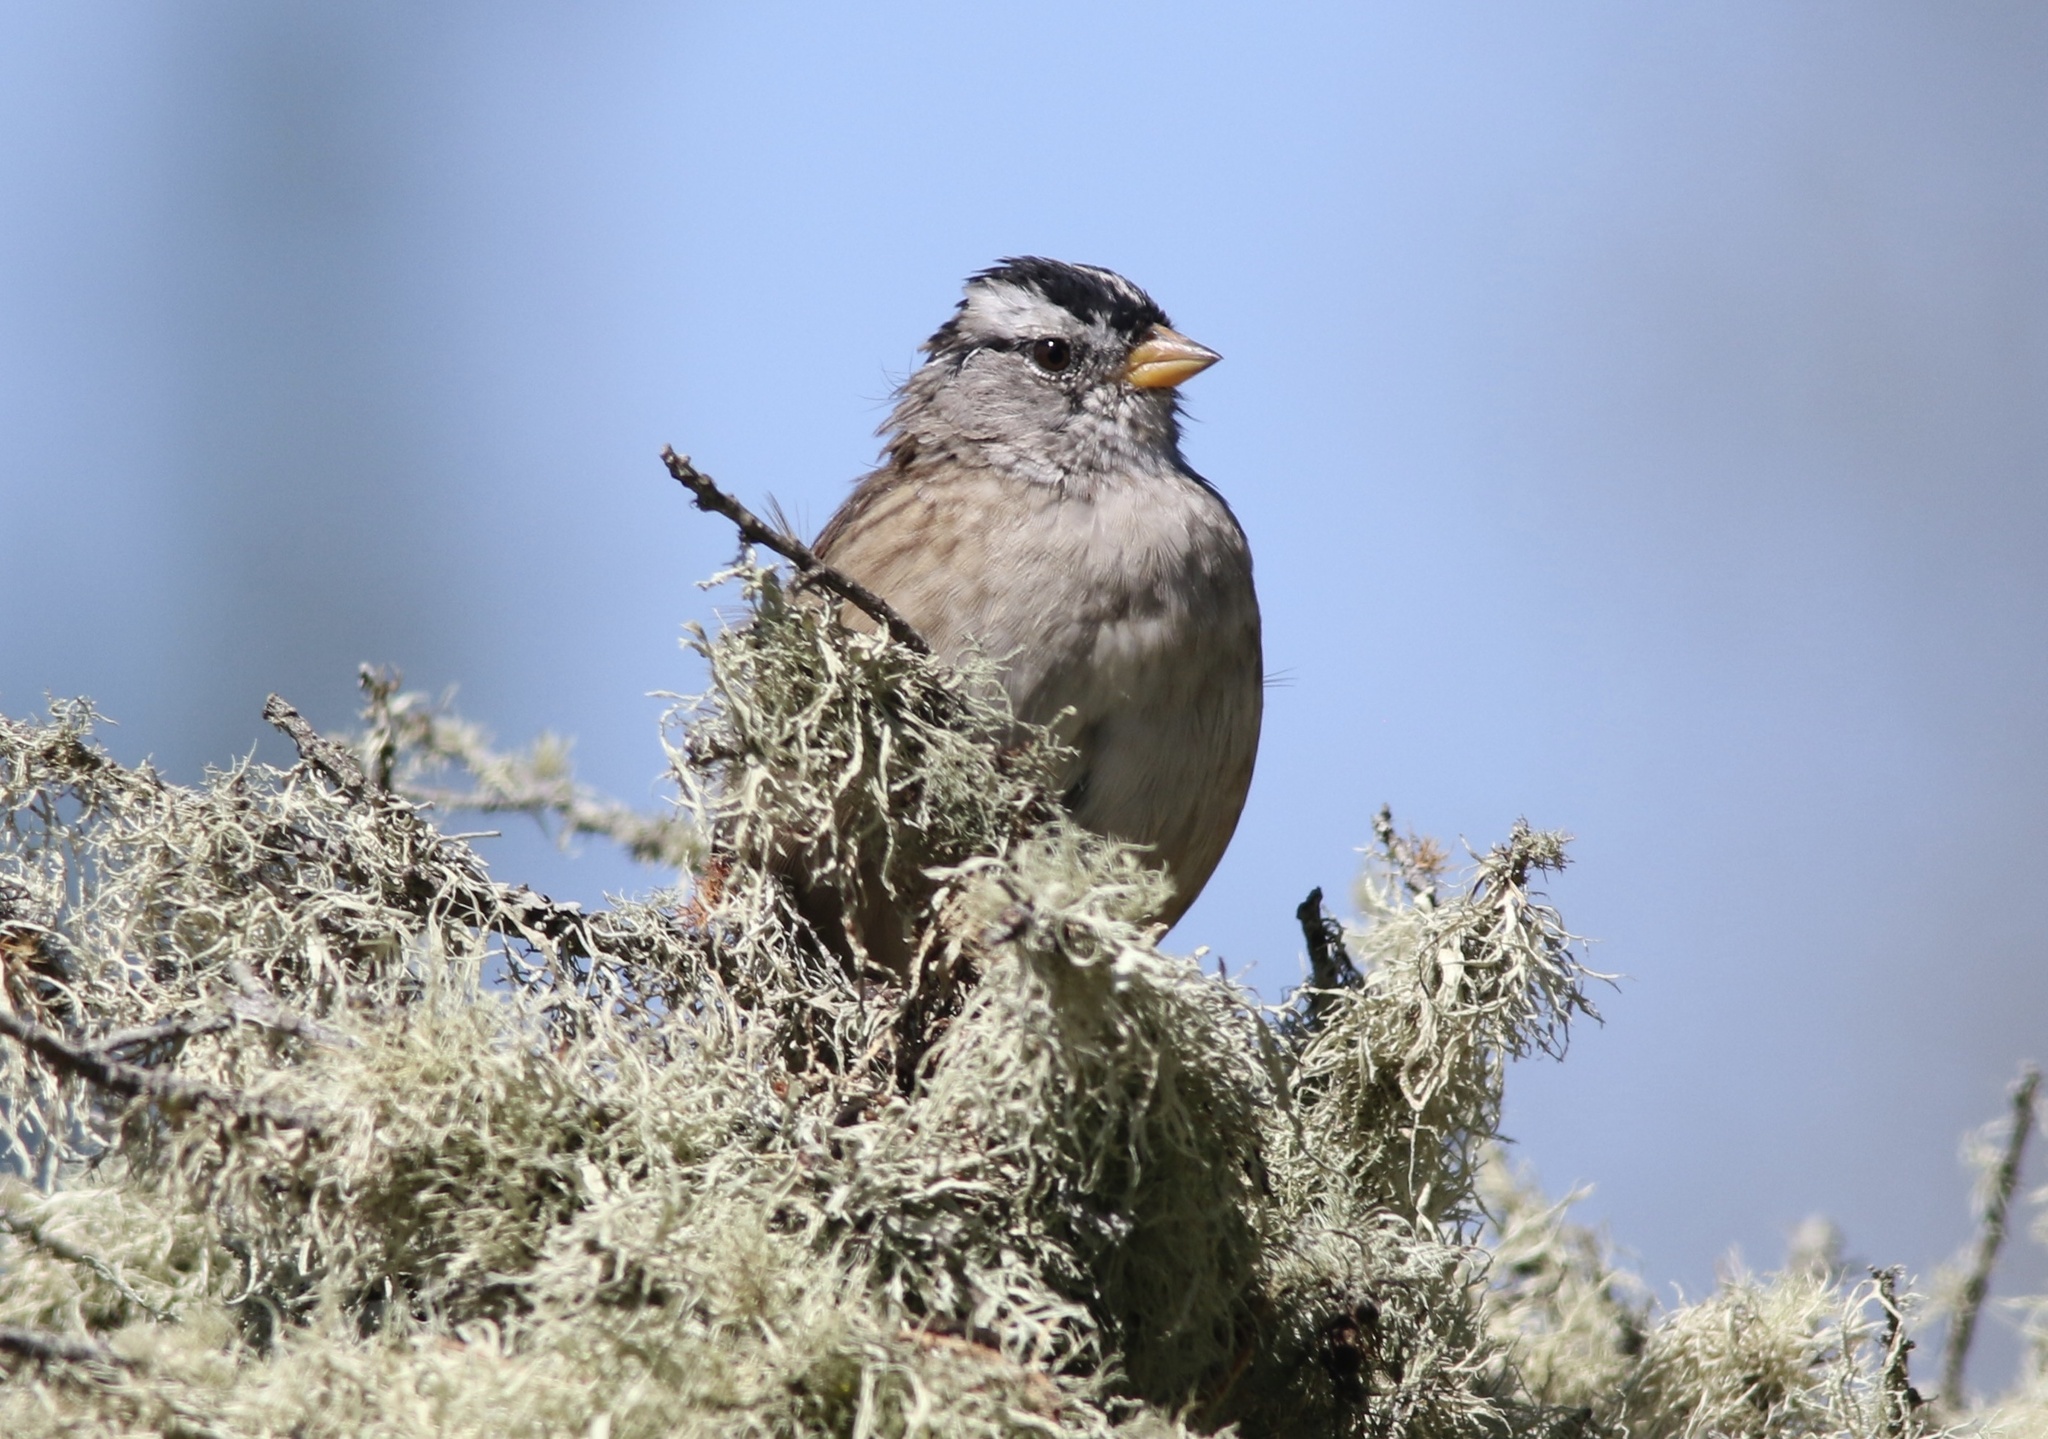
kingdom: Animalia
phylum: Chordata
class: Aves
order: Passeriformes
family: Passerellidae
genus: Zonotrichia
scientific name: Zonotrichia leucophrys
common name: White-crowned sparrow
